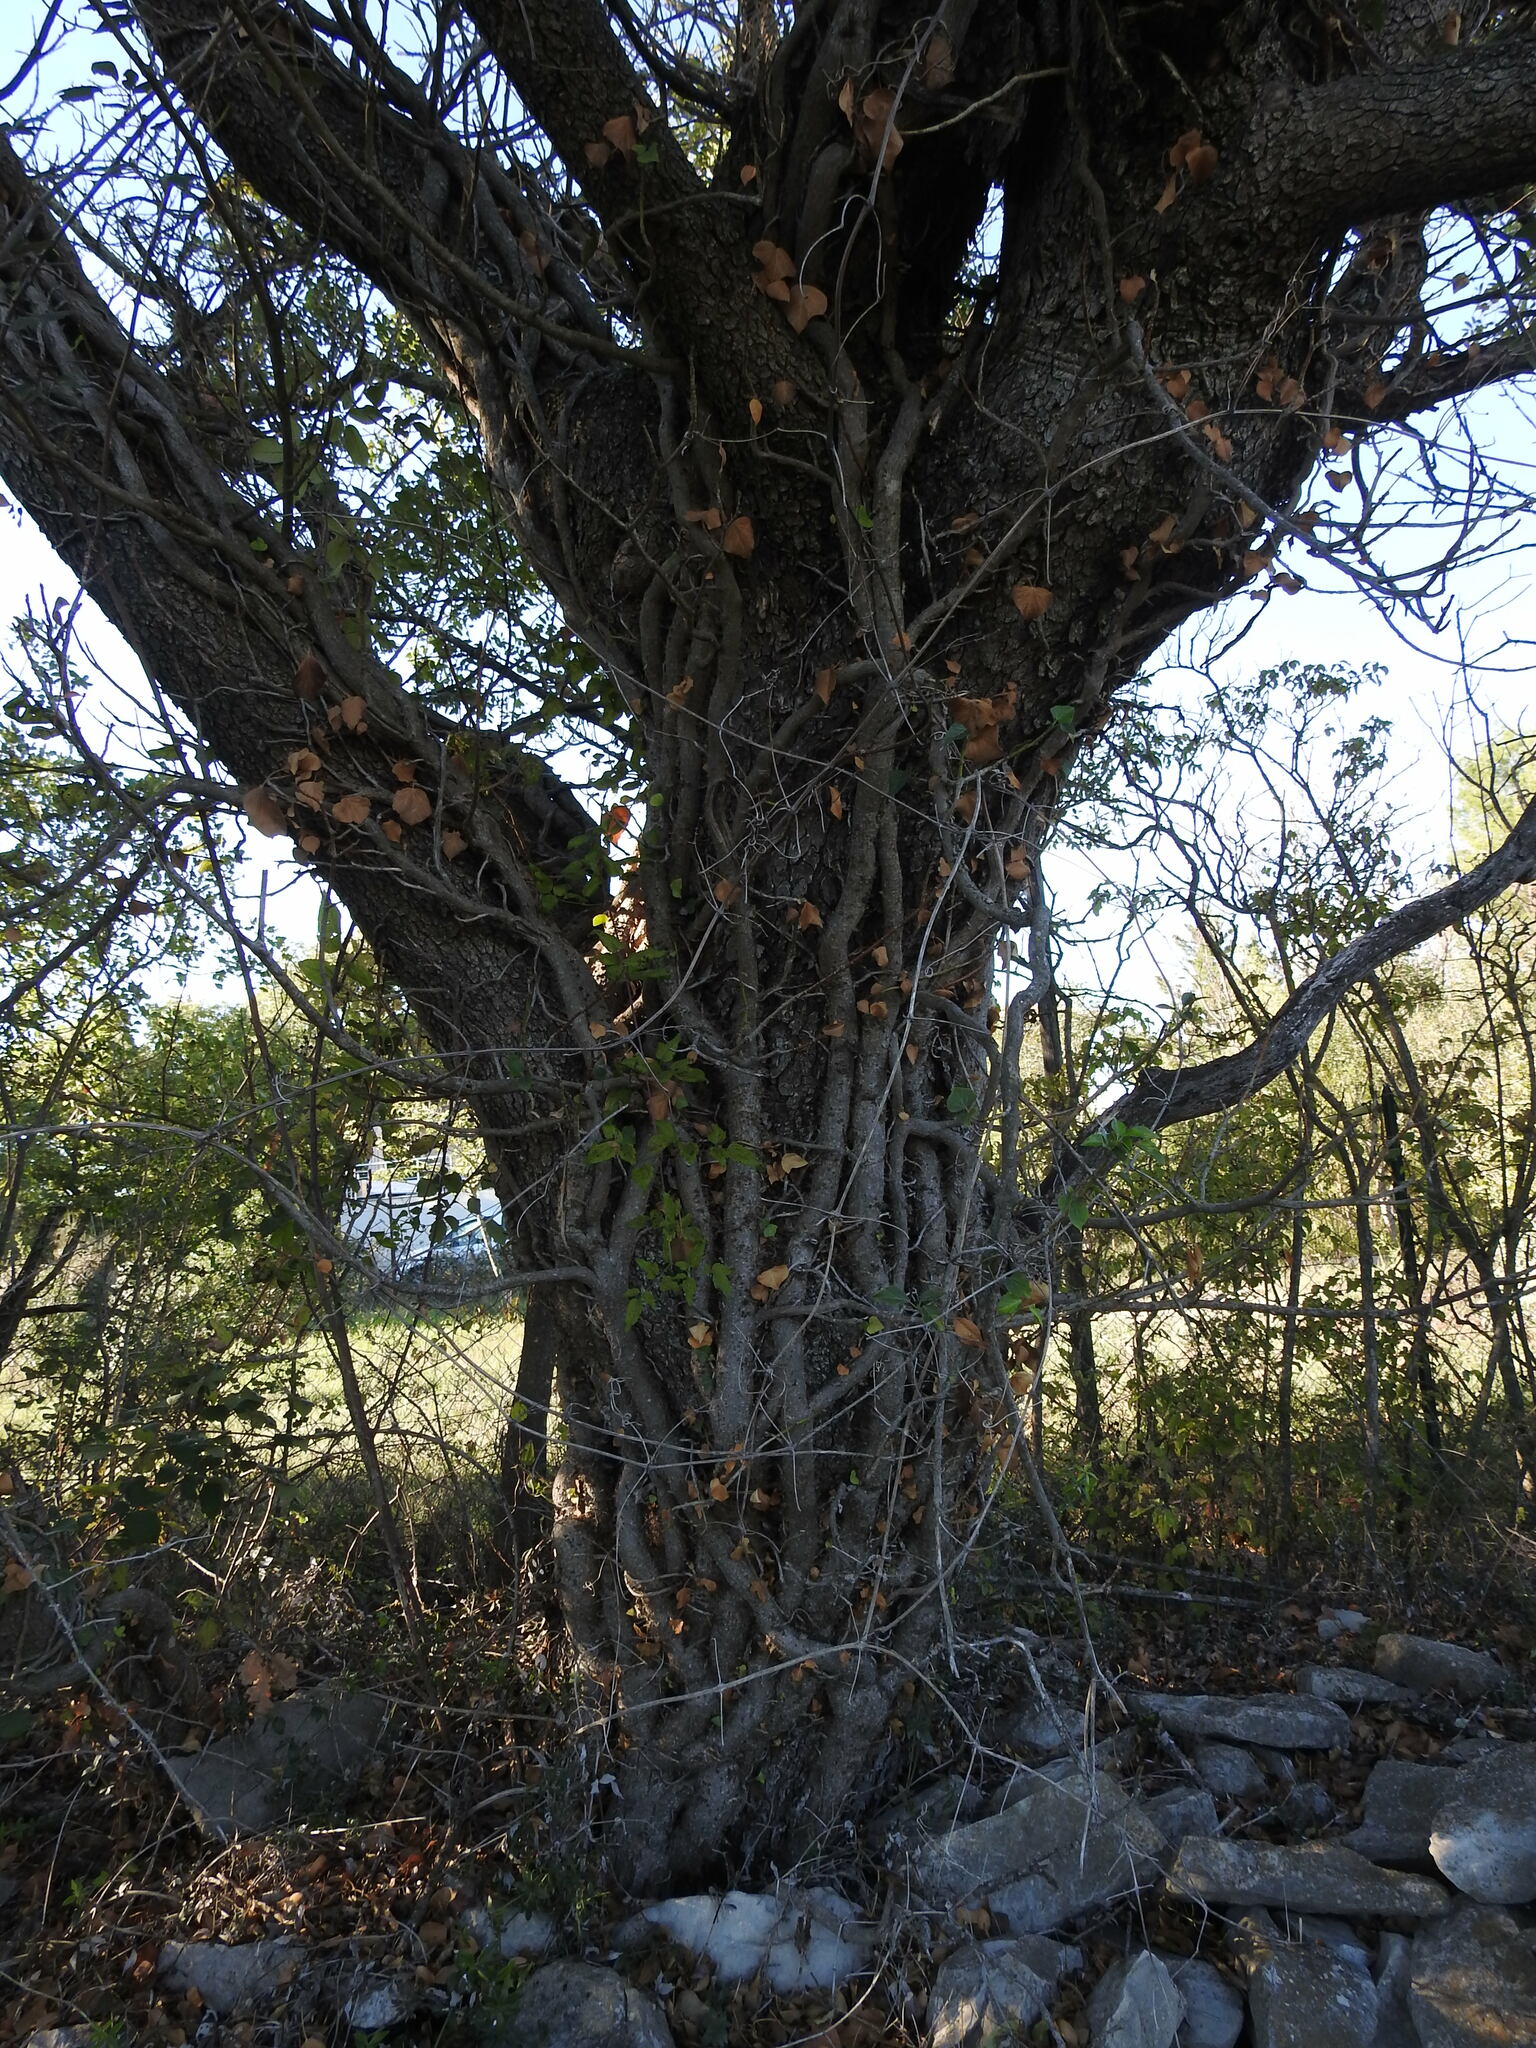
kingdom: Plantae
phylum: Tracheophyta
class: Magnoliopsida
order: Sapindales
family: Anacardiaceae
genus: Pistacia
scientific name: Pistacia terebinthus
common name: Terebinth
